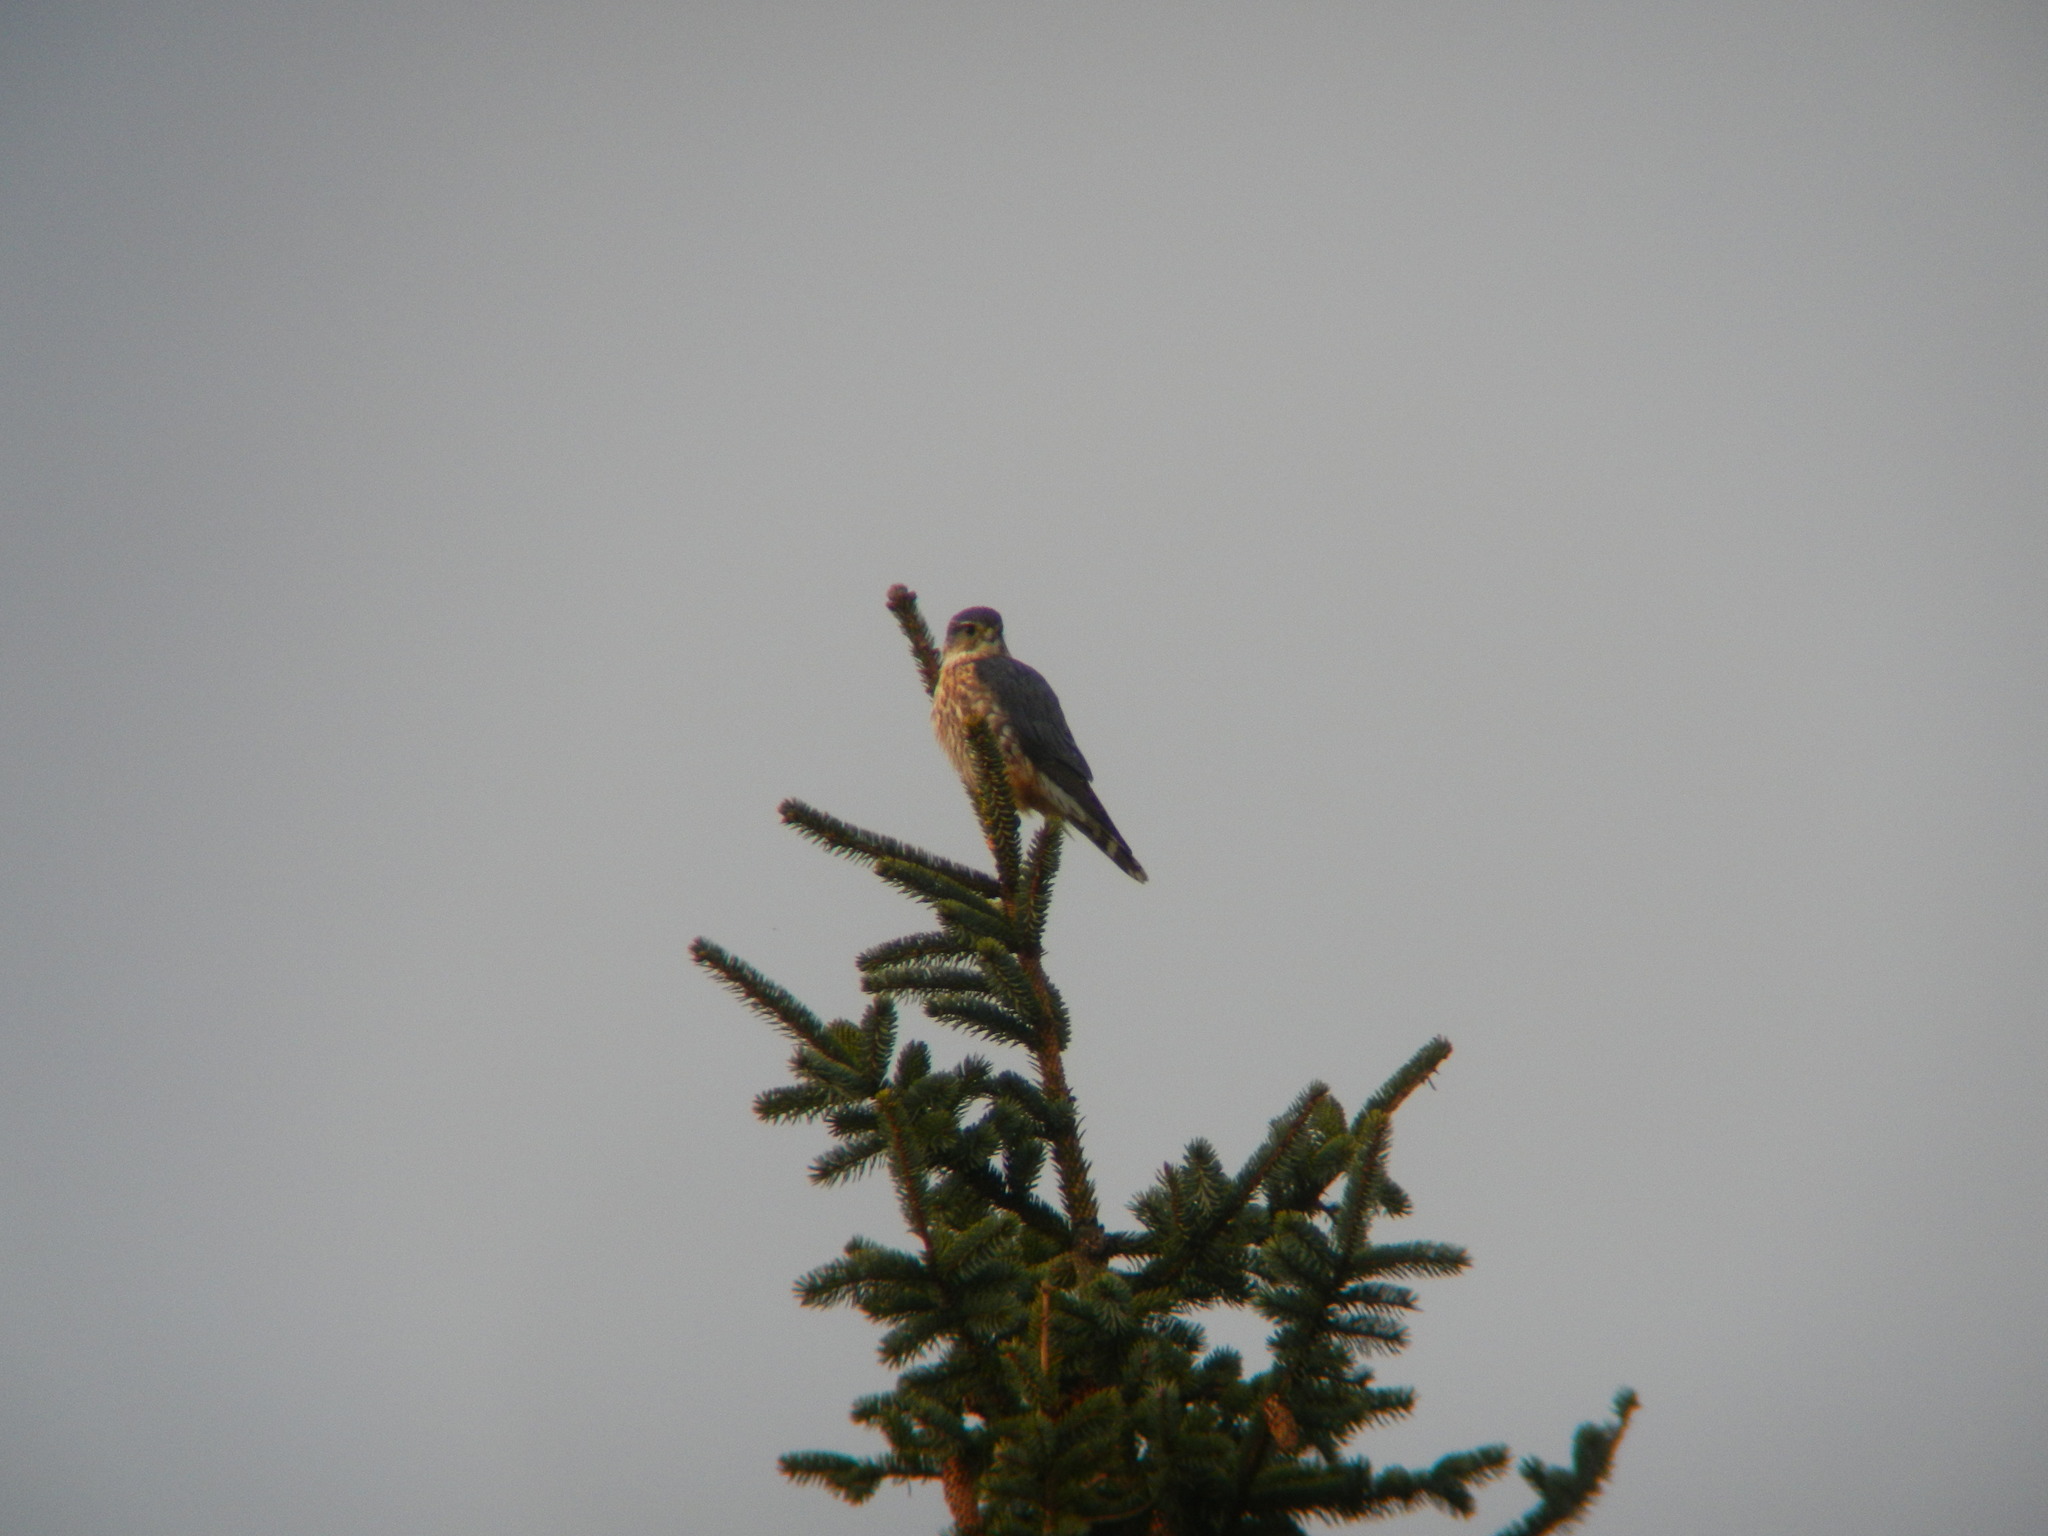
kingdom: Animalia
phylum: Chordata
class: Aves
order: Falconiformes
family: Falconidae
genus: Falco
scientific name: Falco columbarius
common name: Merlin
